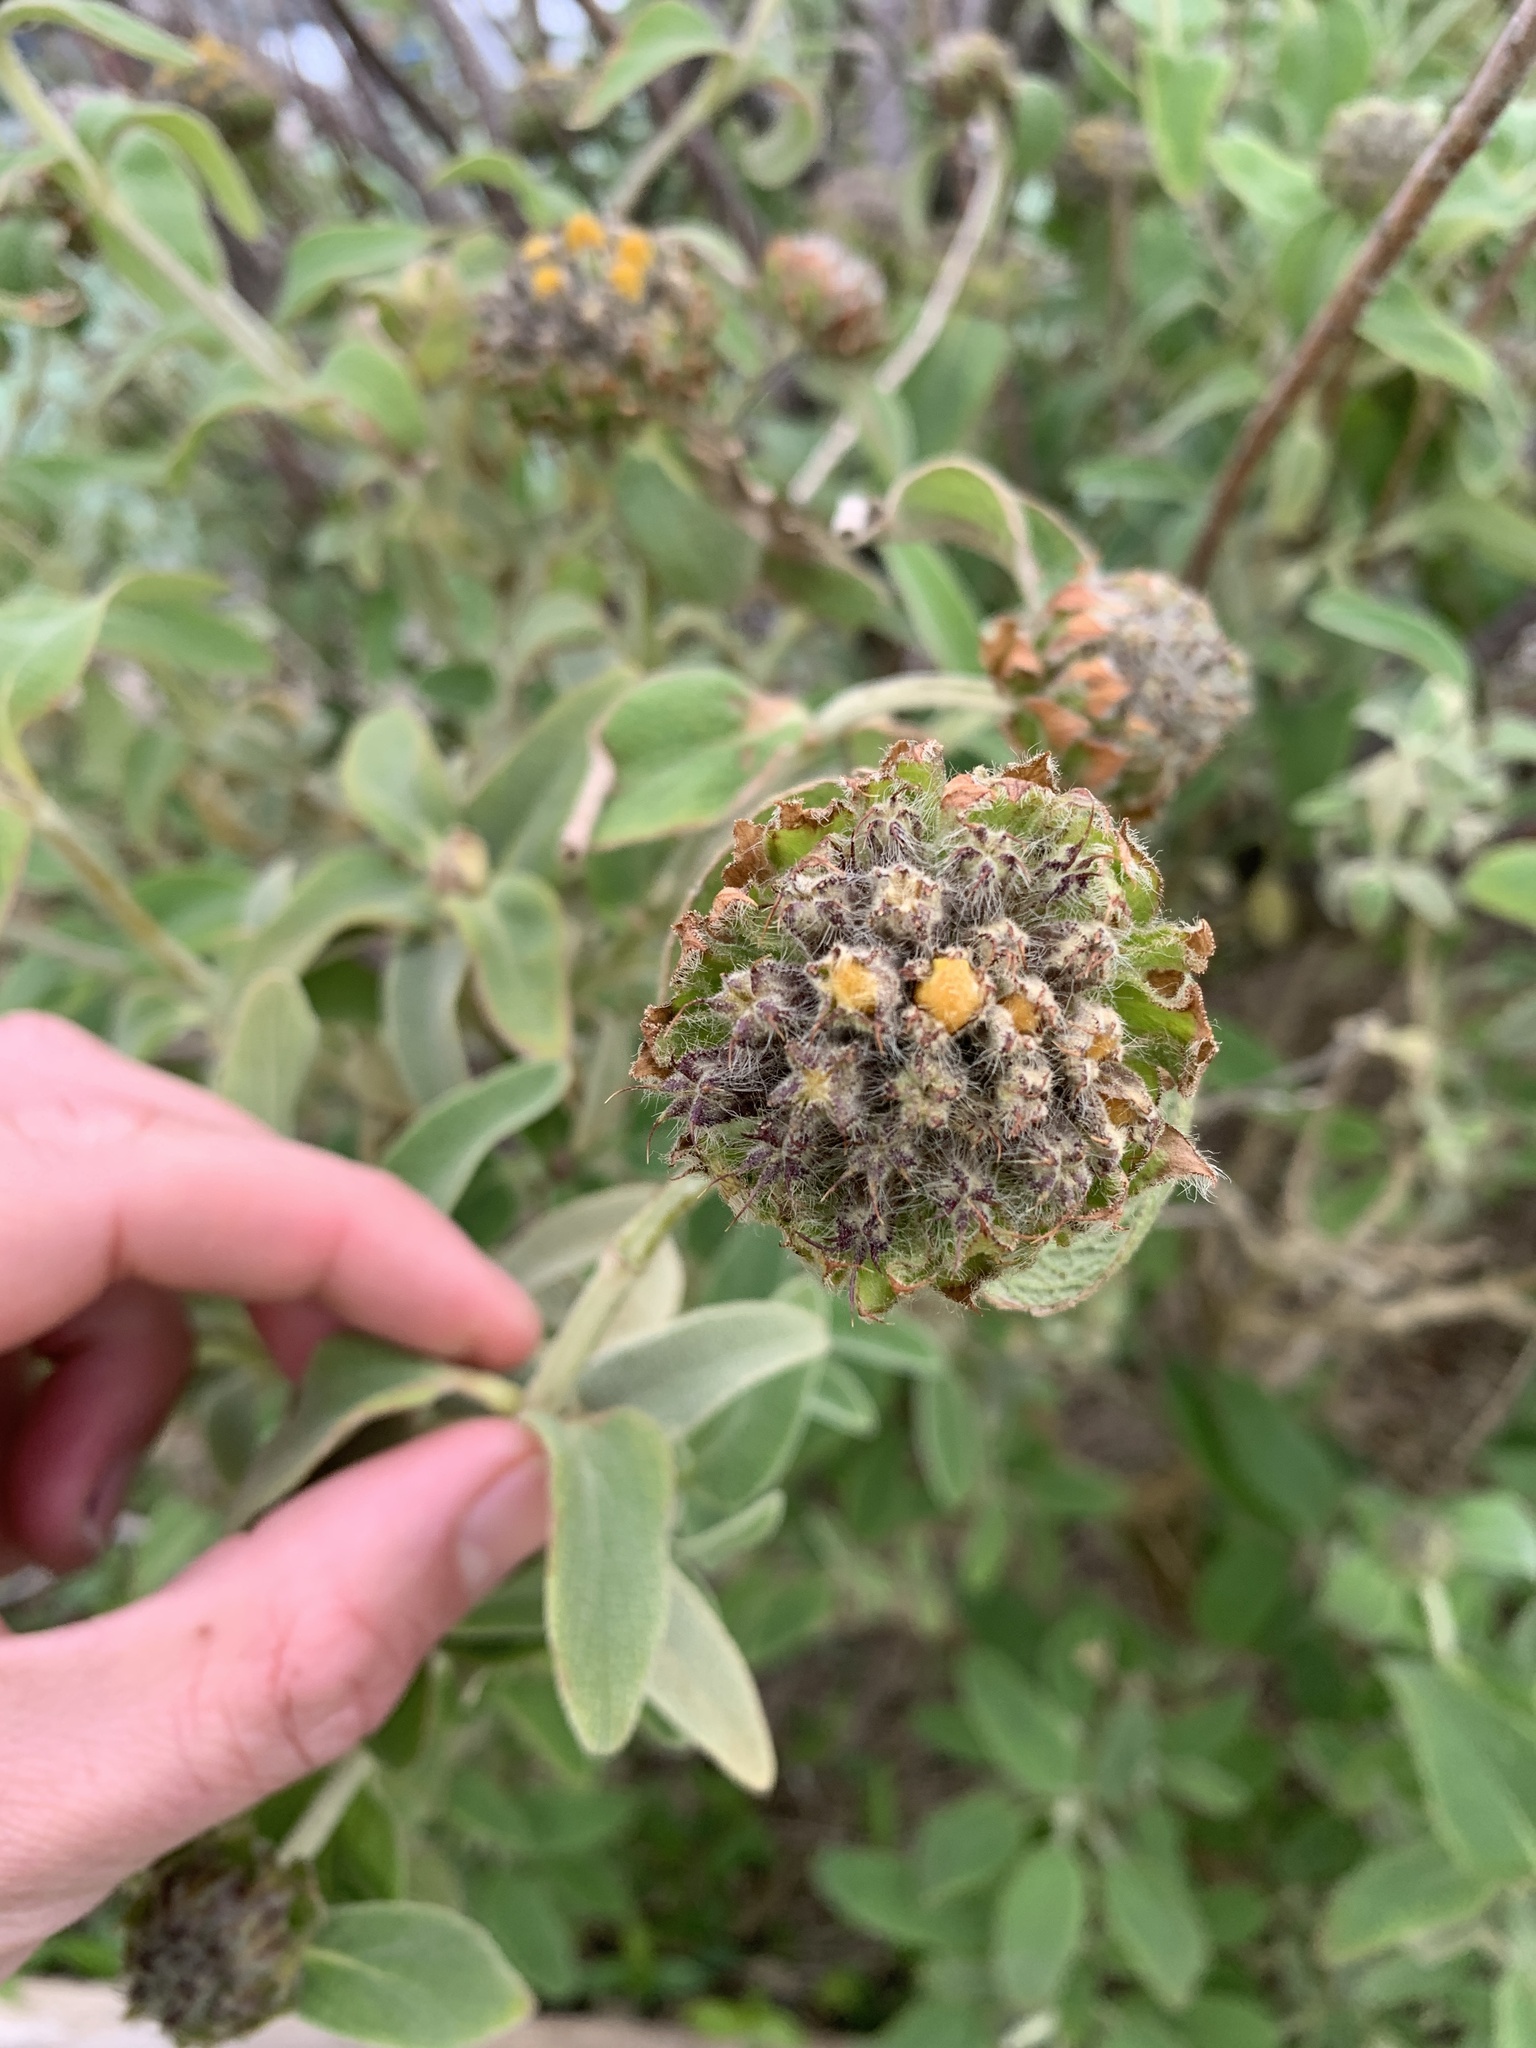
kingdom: Plantae
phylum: Tracheophyta
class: Magnoliopsida
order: Lamiales
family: Lamiaceae
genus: Phlomis
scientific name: Phlomis fruticosa
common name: Jerusalem sage
